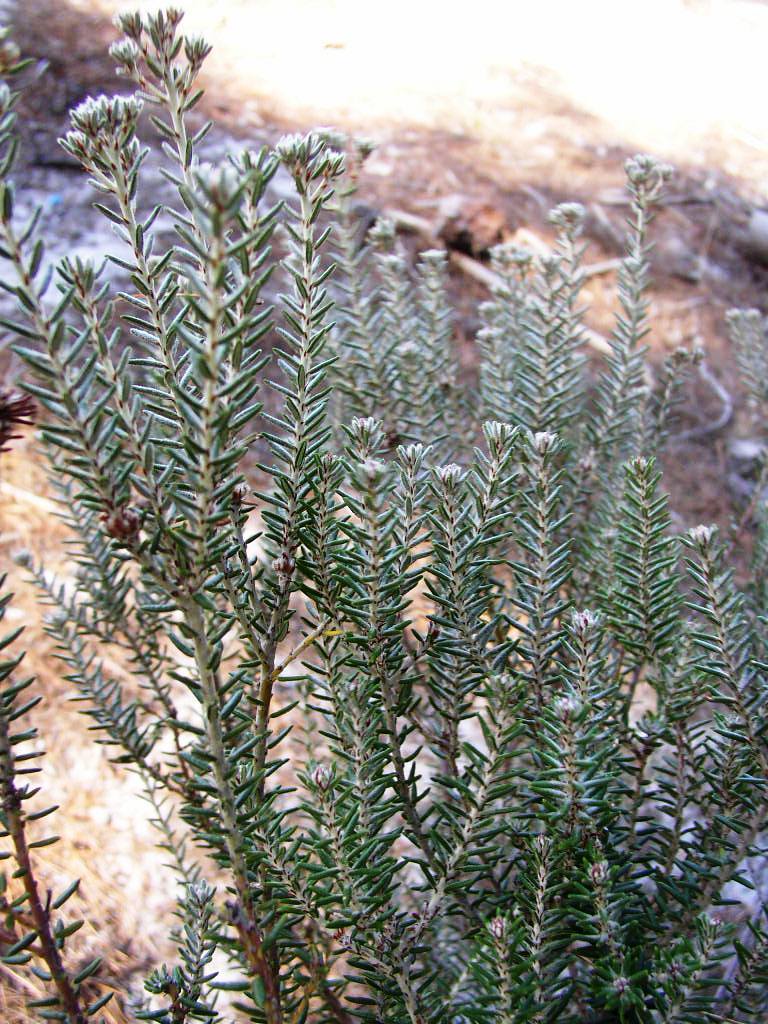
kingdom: Plantae
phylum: Tracheophyta
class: Magnoliopsida
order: Rosales
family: Rhamnaceae
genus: Trichocephalus
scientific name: Trichocephalus stipularis
